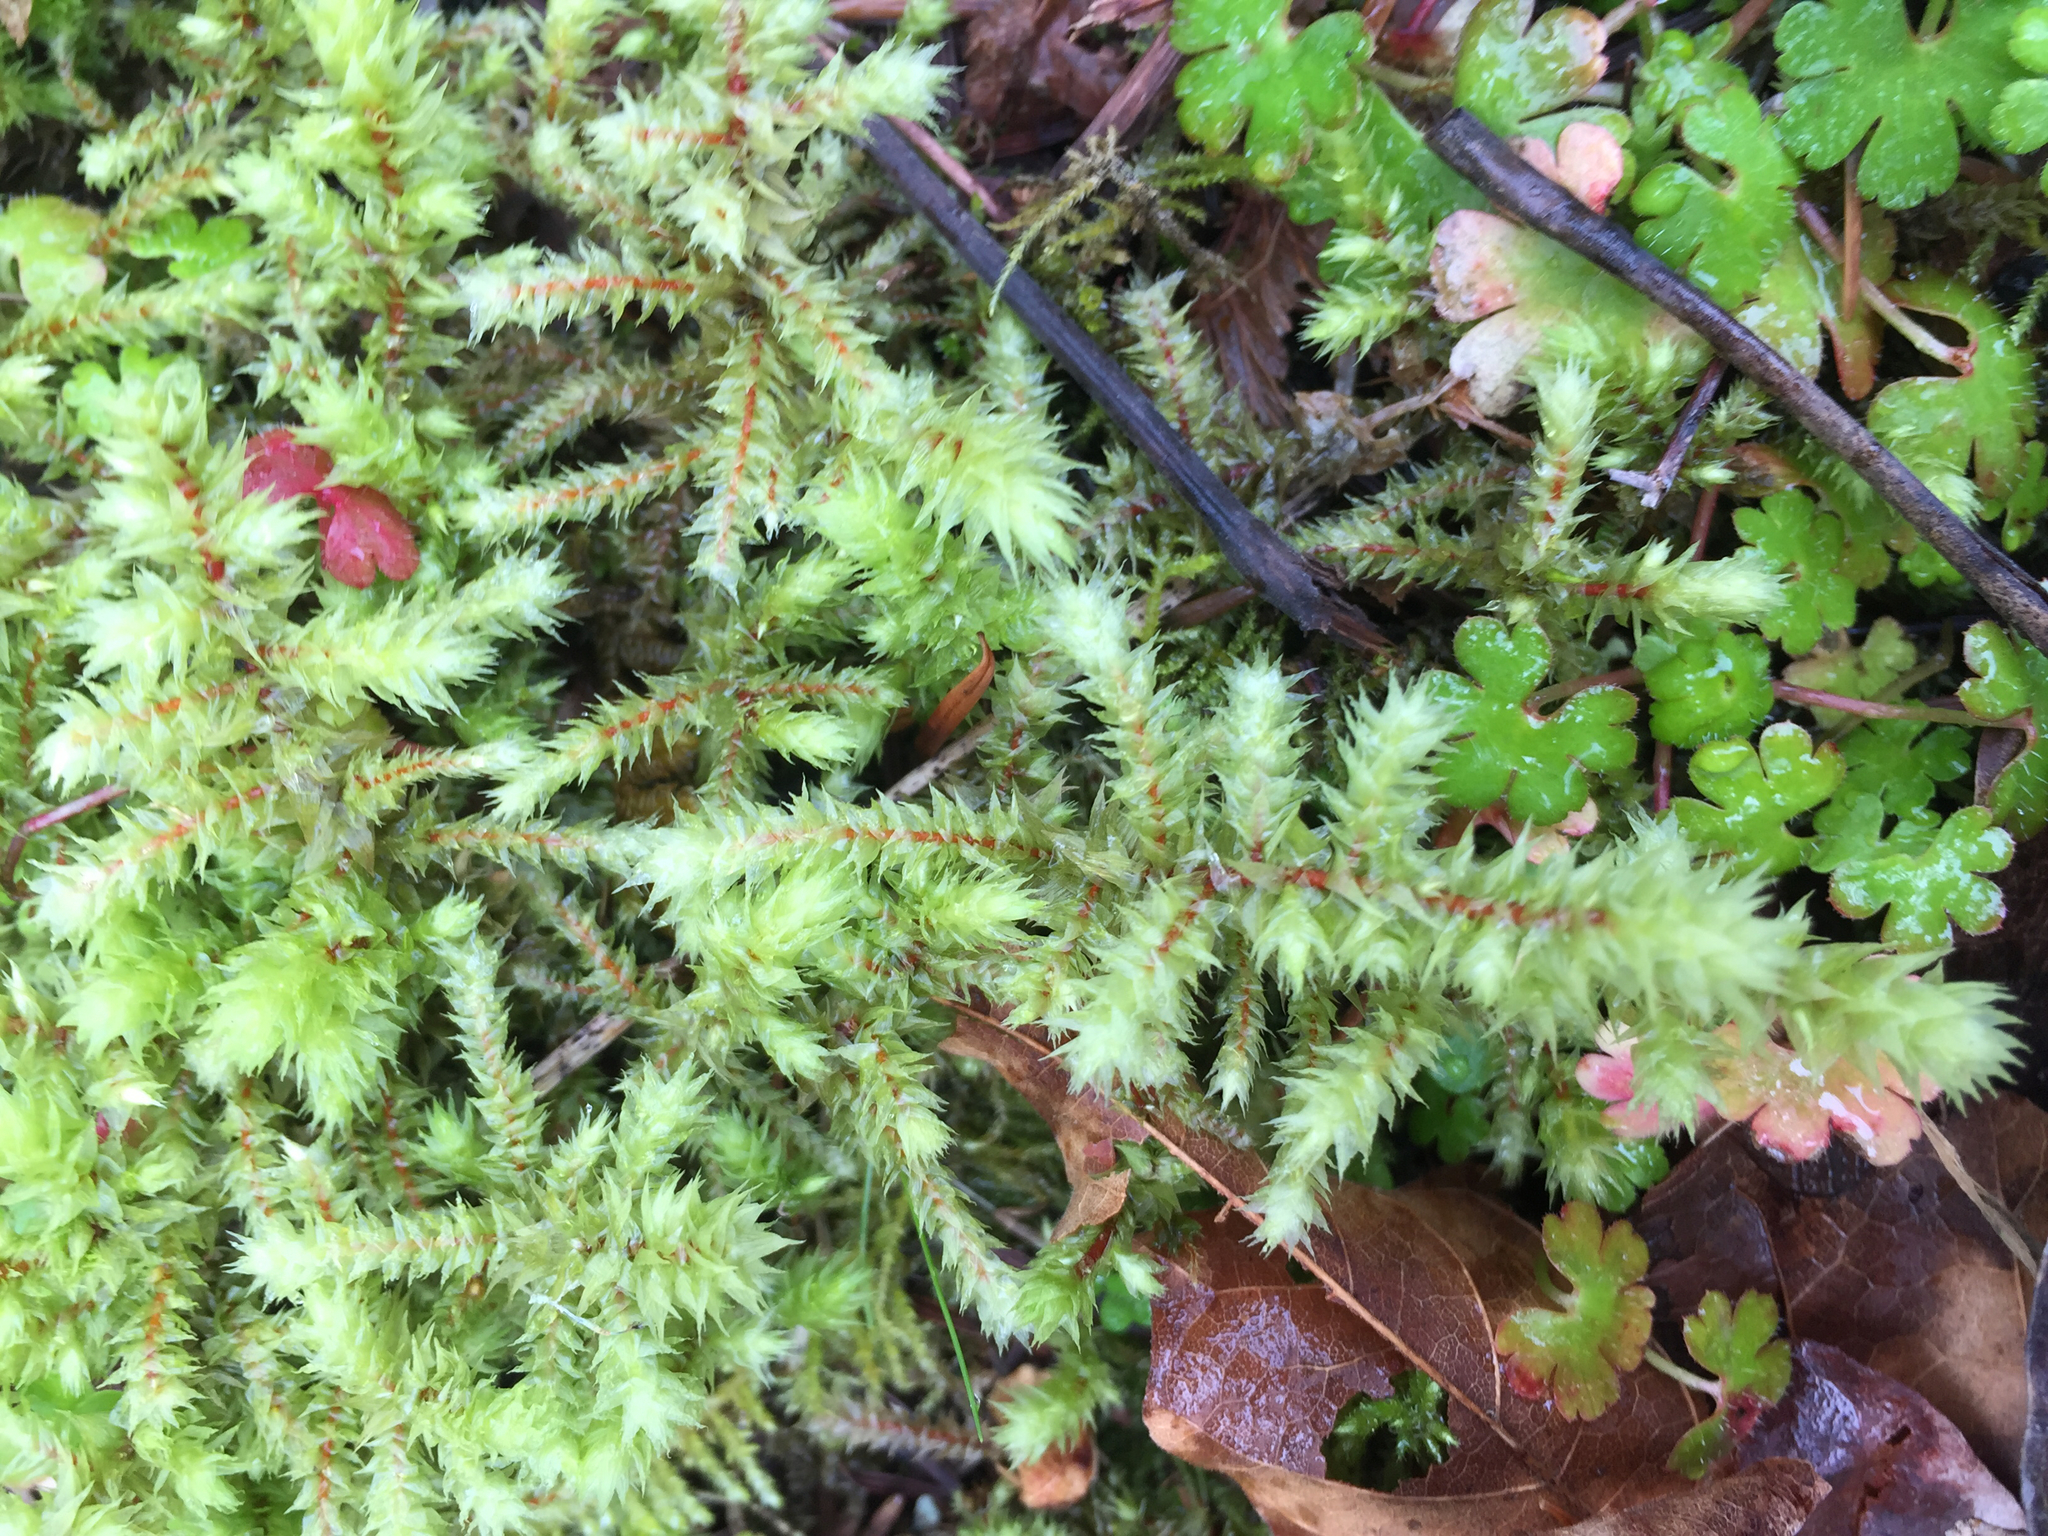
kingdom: Plantae
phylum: Bryophyta
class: Bryopsida
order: Hypnales
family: Hylocomiaceae
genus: Hylocomiadelphus
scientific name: Hylocomiadelphus triquetrus
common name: Rough goose neck moss
